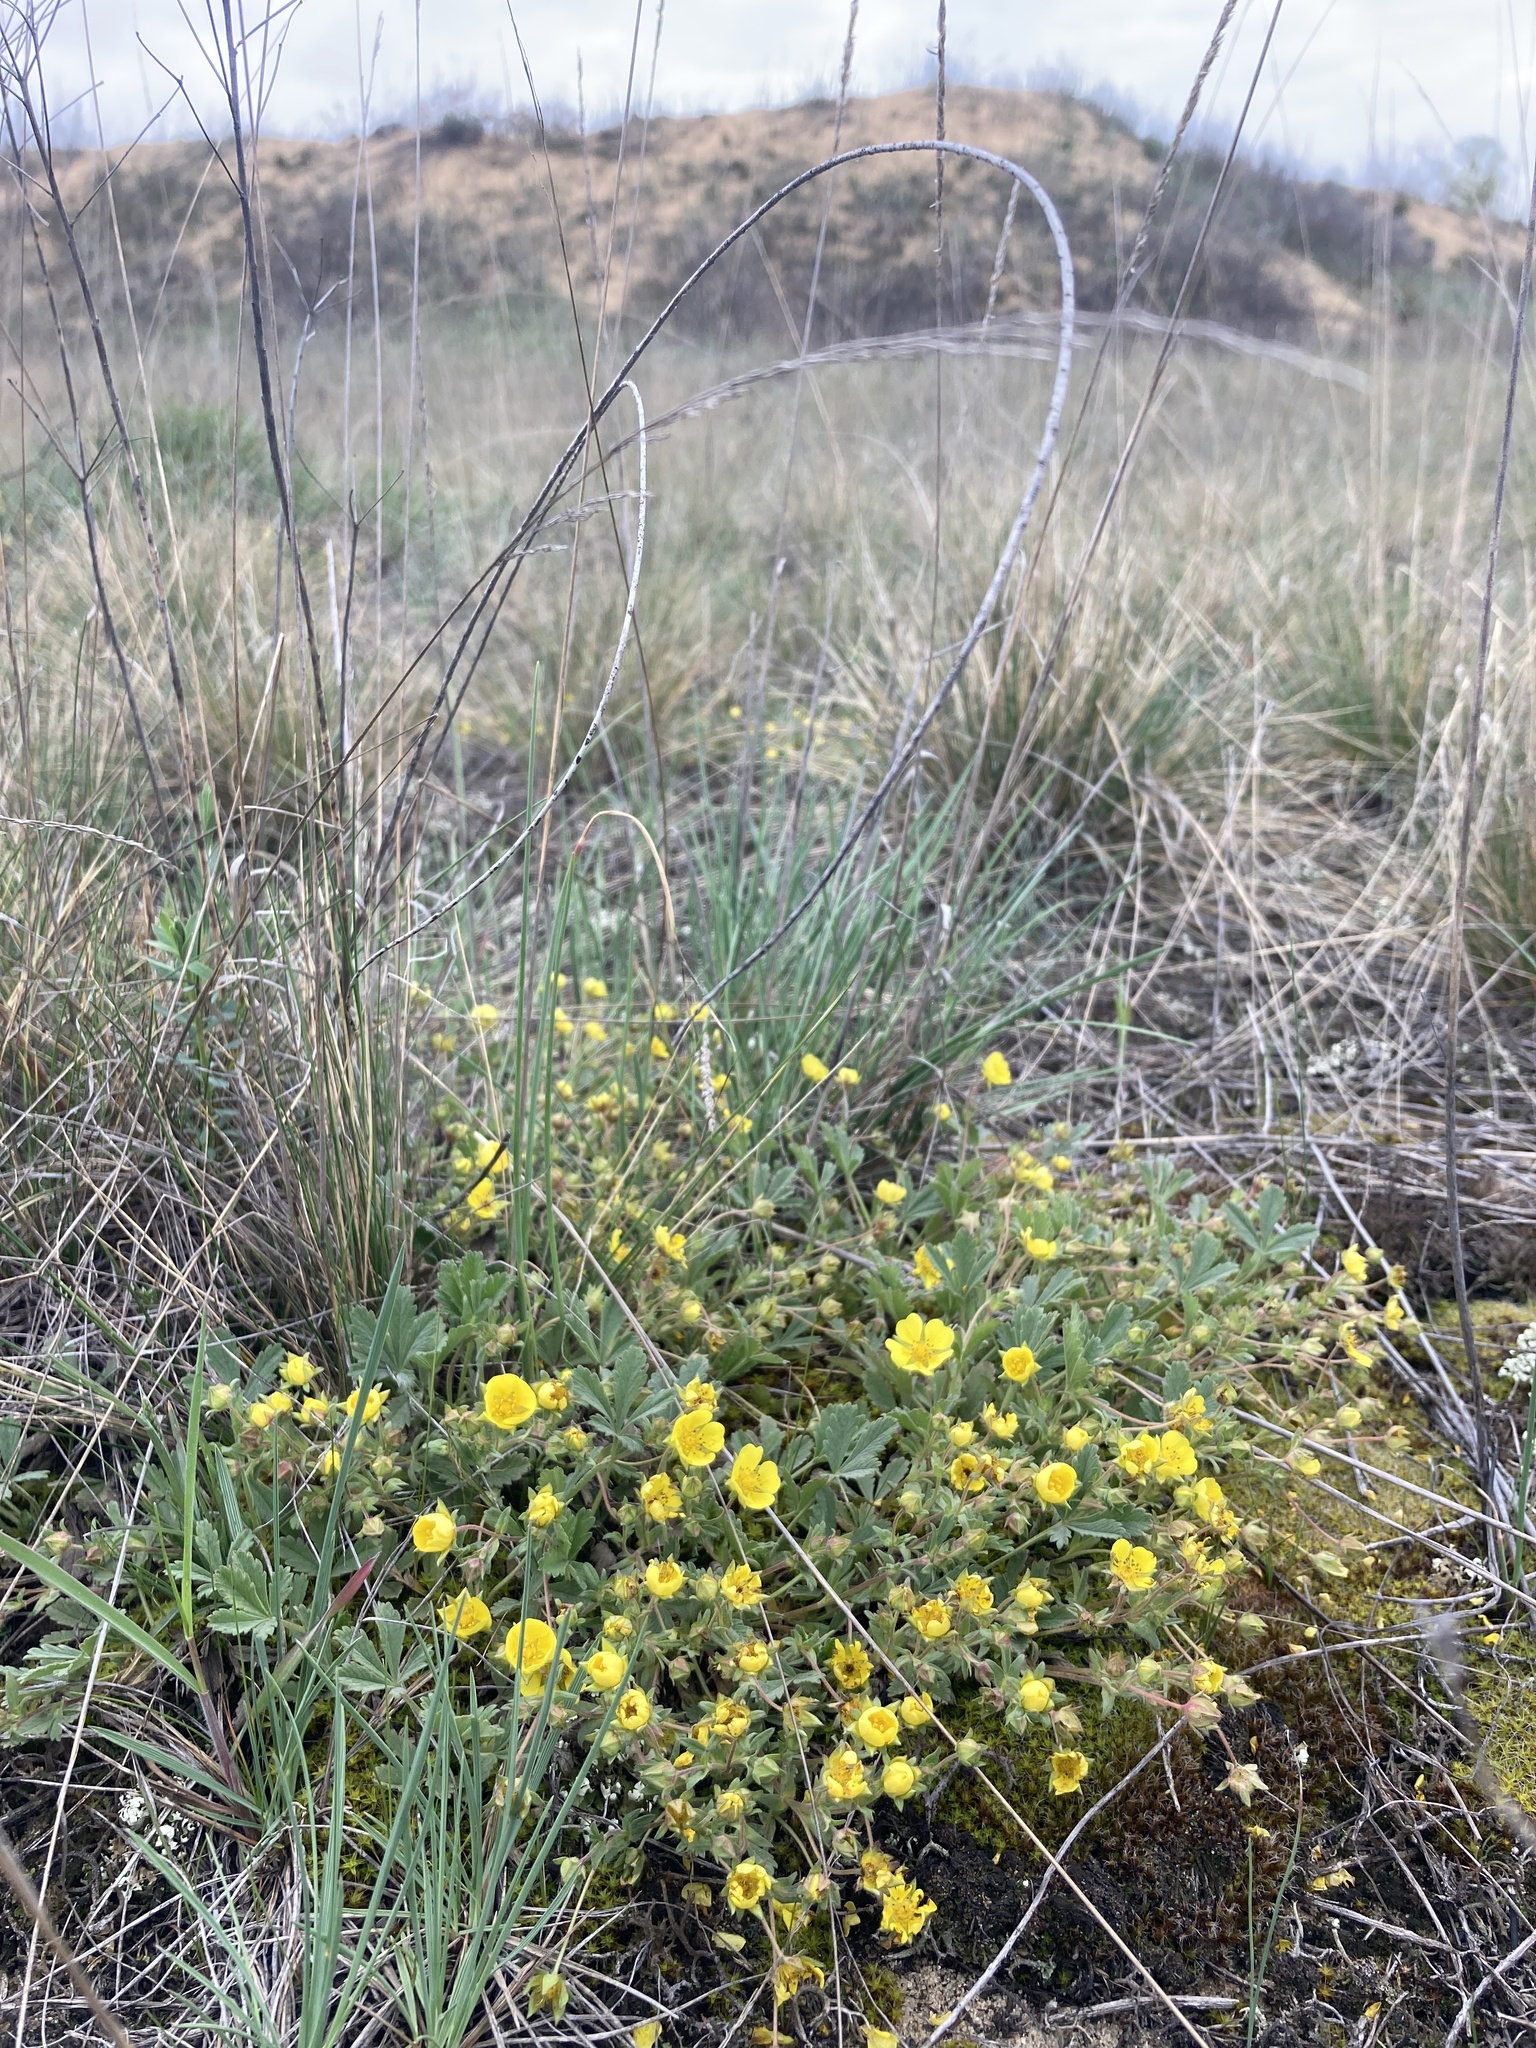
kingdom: Plantae
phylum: Tracheophyta
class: Magnoliopsida
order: Rosales
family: Rosaceae
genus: Potentilla
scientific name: Potentilla incana
